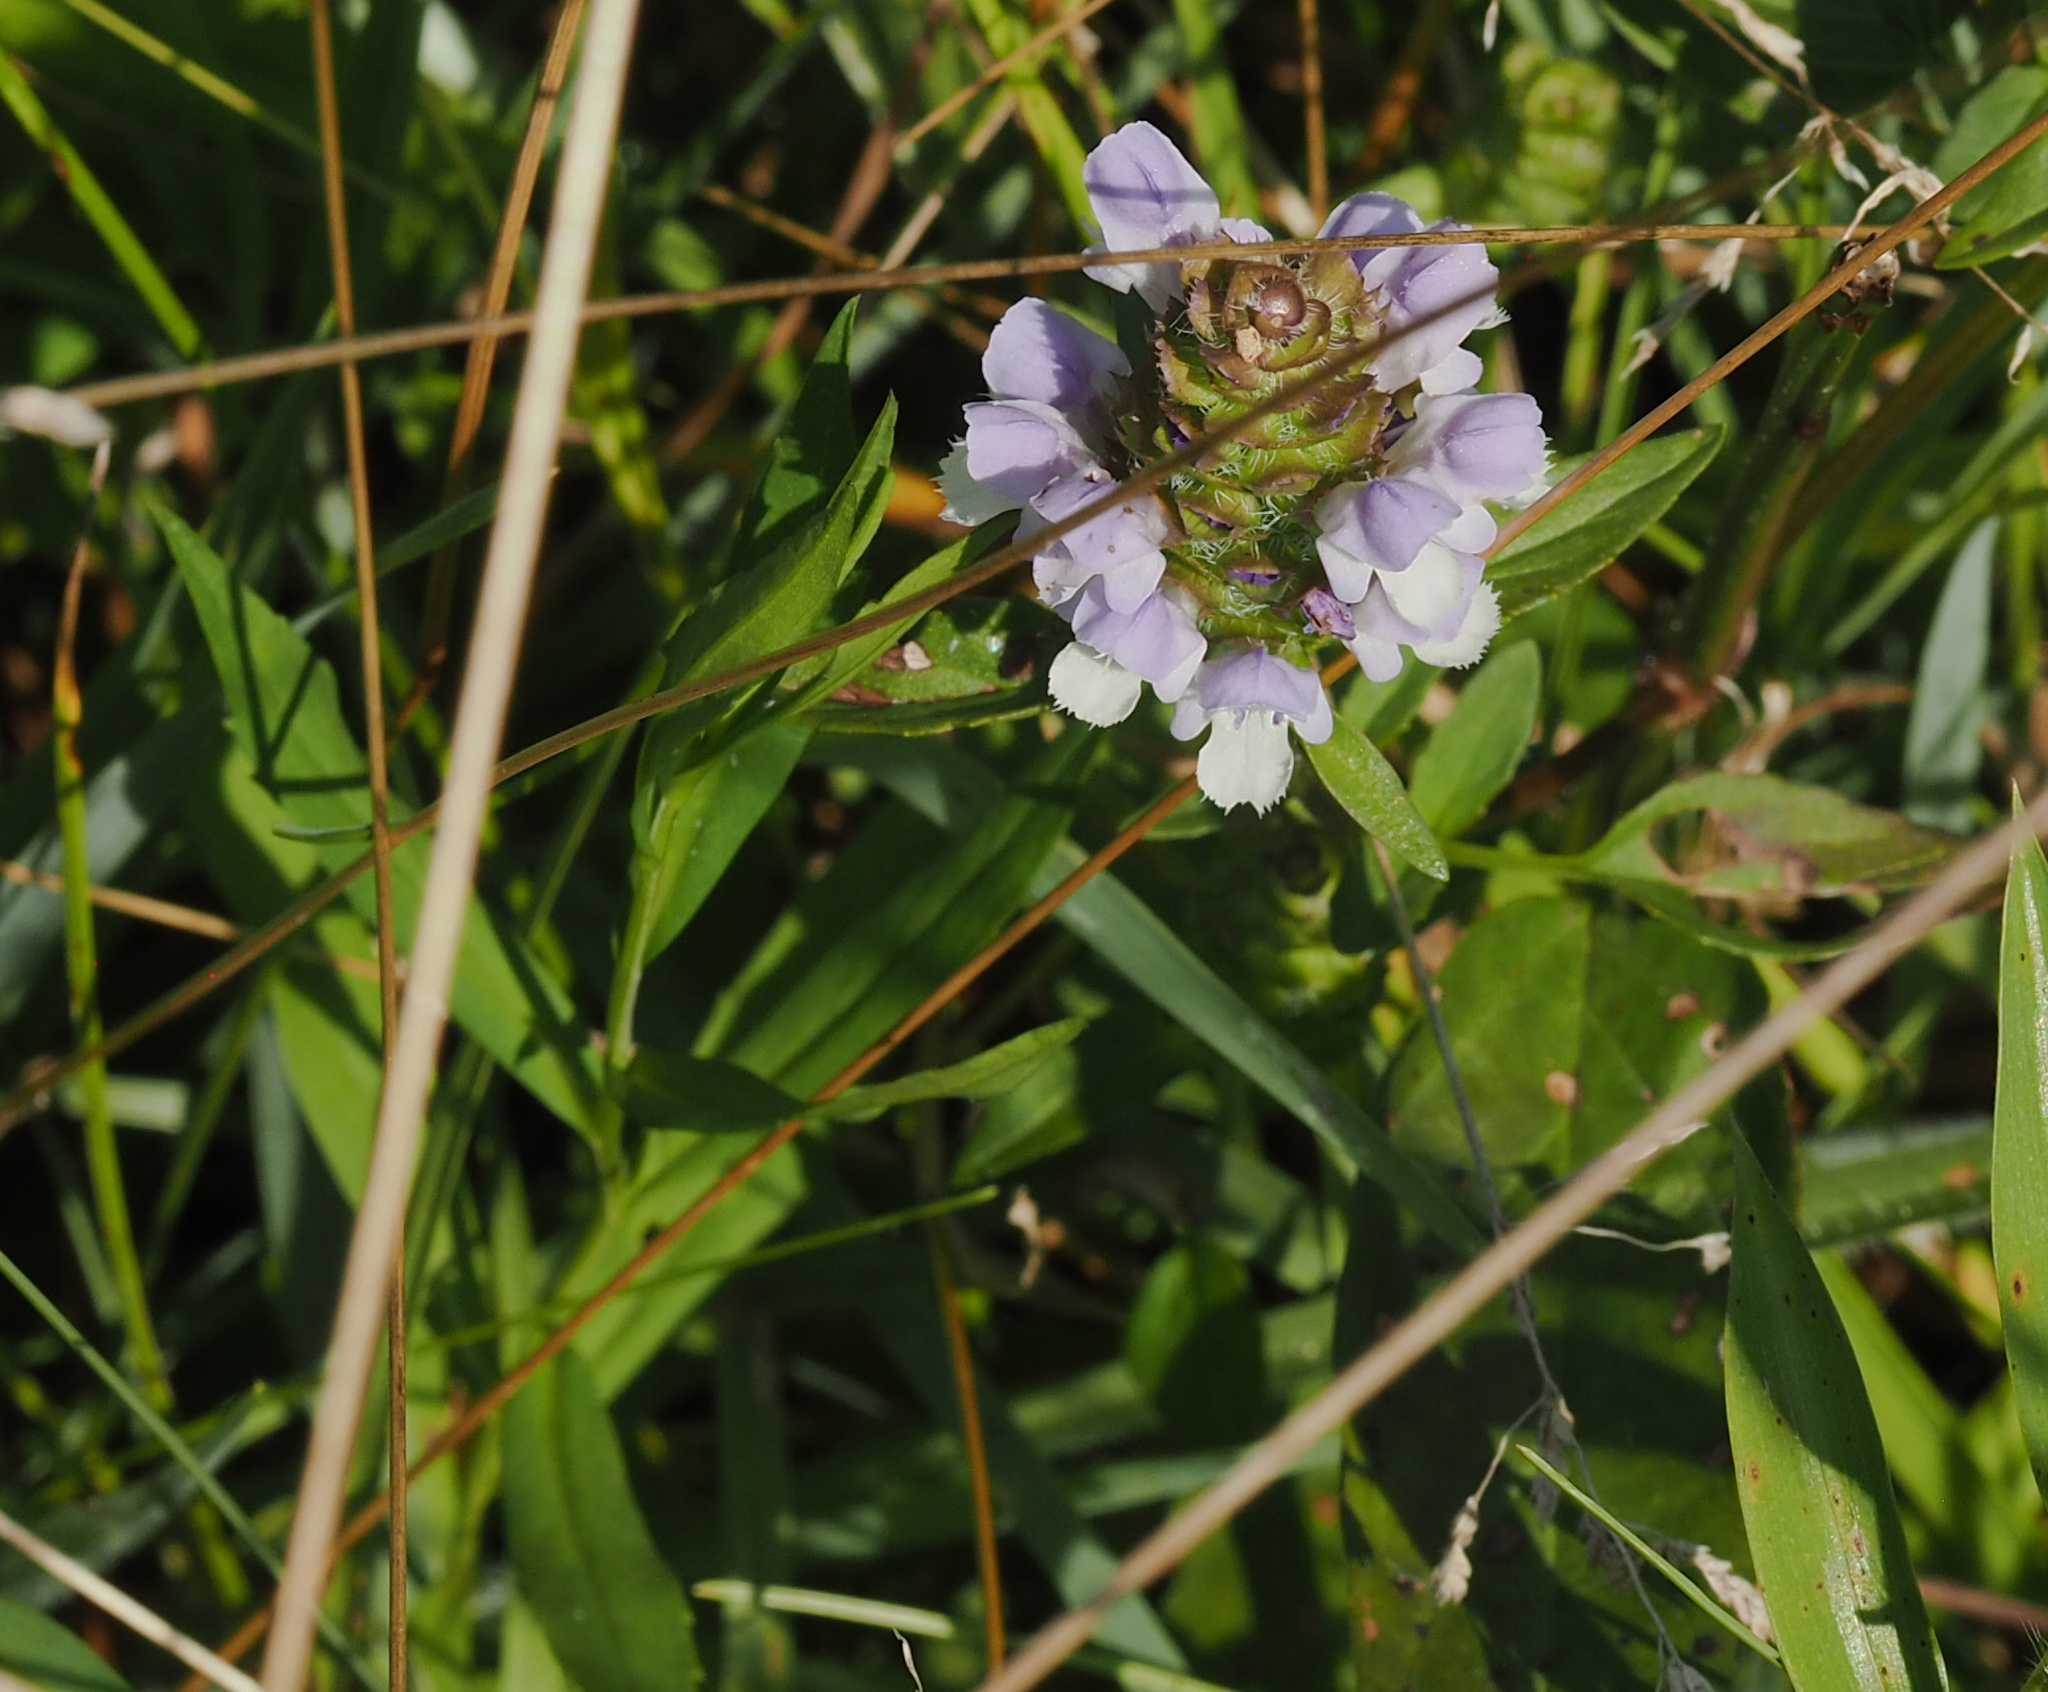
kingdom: Plantae
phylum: Tracheophyta
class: Magnoliopsida
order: Lamiales
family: Lamiaceae
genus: Prunella
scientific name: Prunella vulgaris
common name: Heal-all
